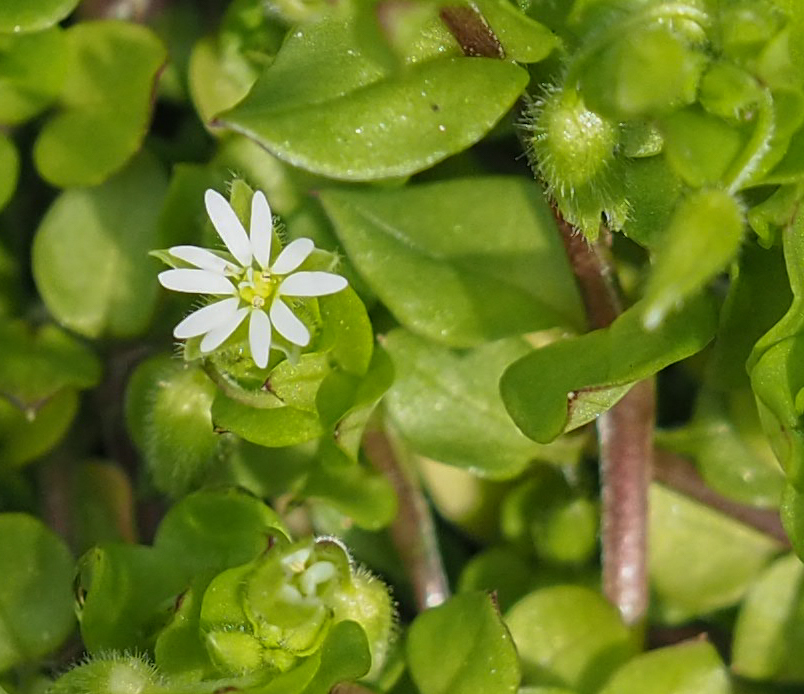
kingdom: Plantae
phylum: Tracheophyta
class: Magnoliopsida
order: Caryophyllales
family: Caryophyllaceae
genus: Stellaria
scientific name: Stellaria media
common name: Common chickweed
